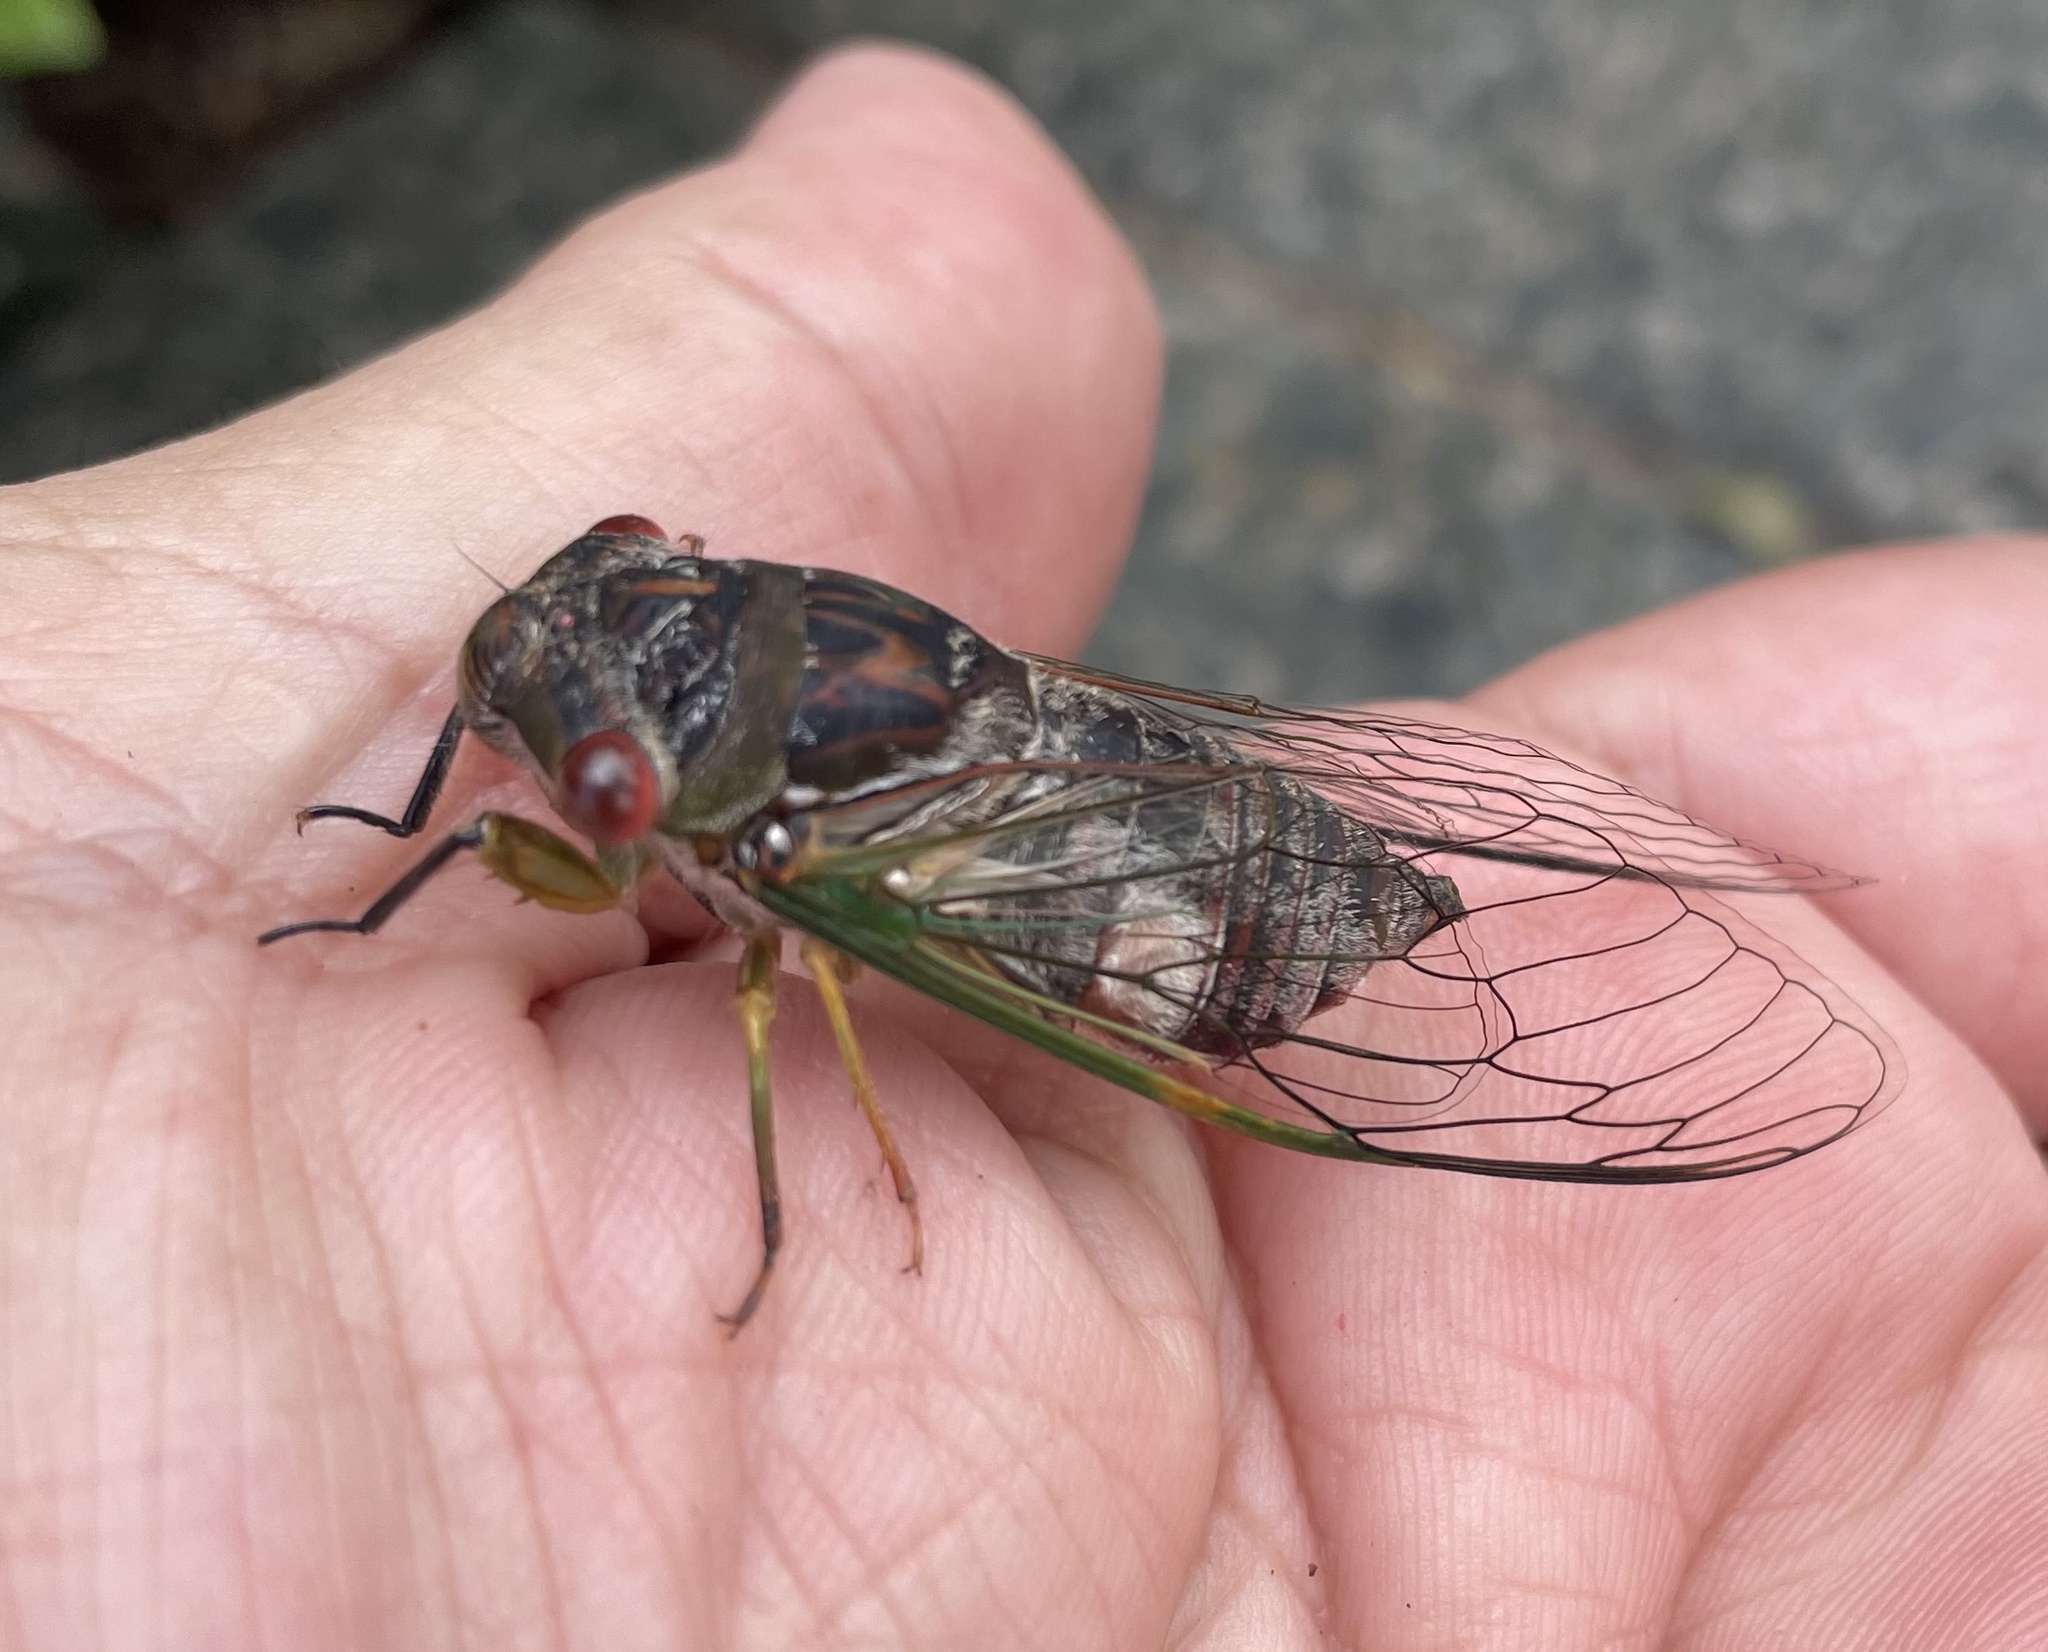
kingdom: Animalia
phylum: Arthropoda
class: Insecta
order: Hemiptera
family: Cicadidae
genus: Psaltoda
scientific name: Psaltoda claripennis
